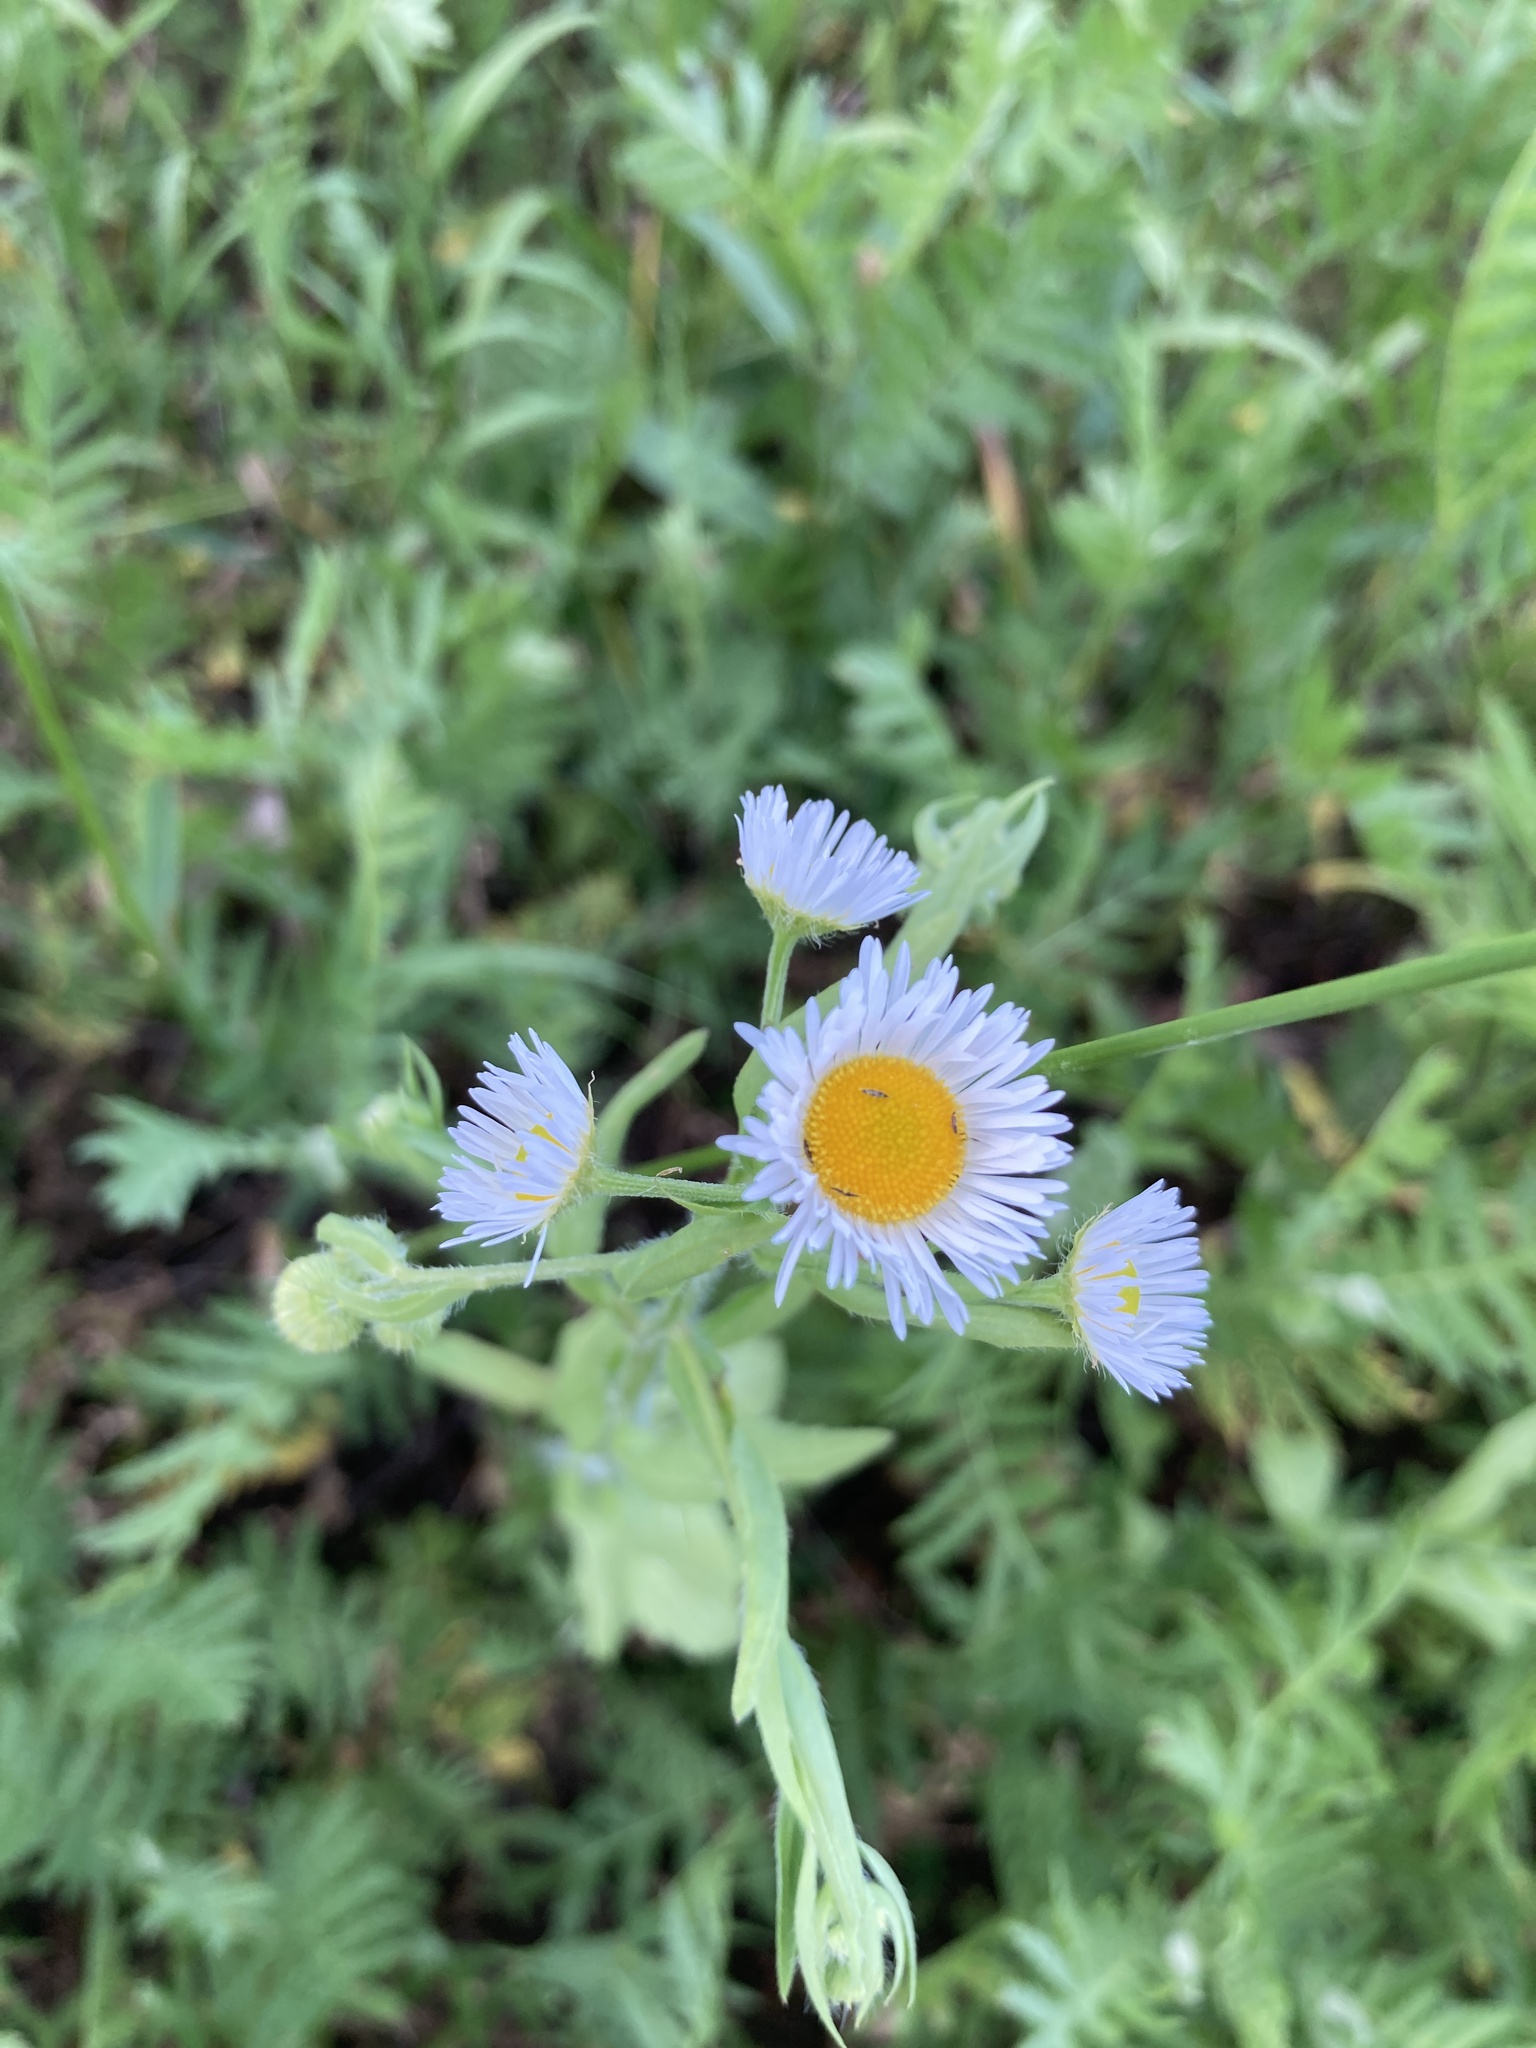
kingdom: Plantae
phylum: Tracheophyta
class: Magnoliopsida
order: Asterales
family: Asteraceae
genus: Erigeron
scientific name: Erigeron annuus
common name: Tall fleabane
